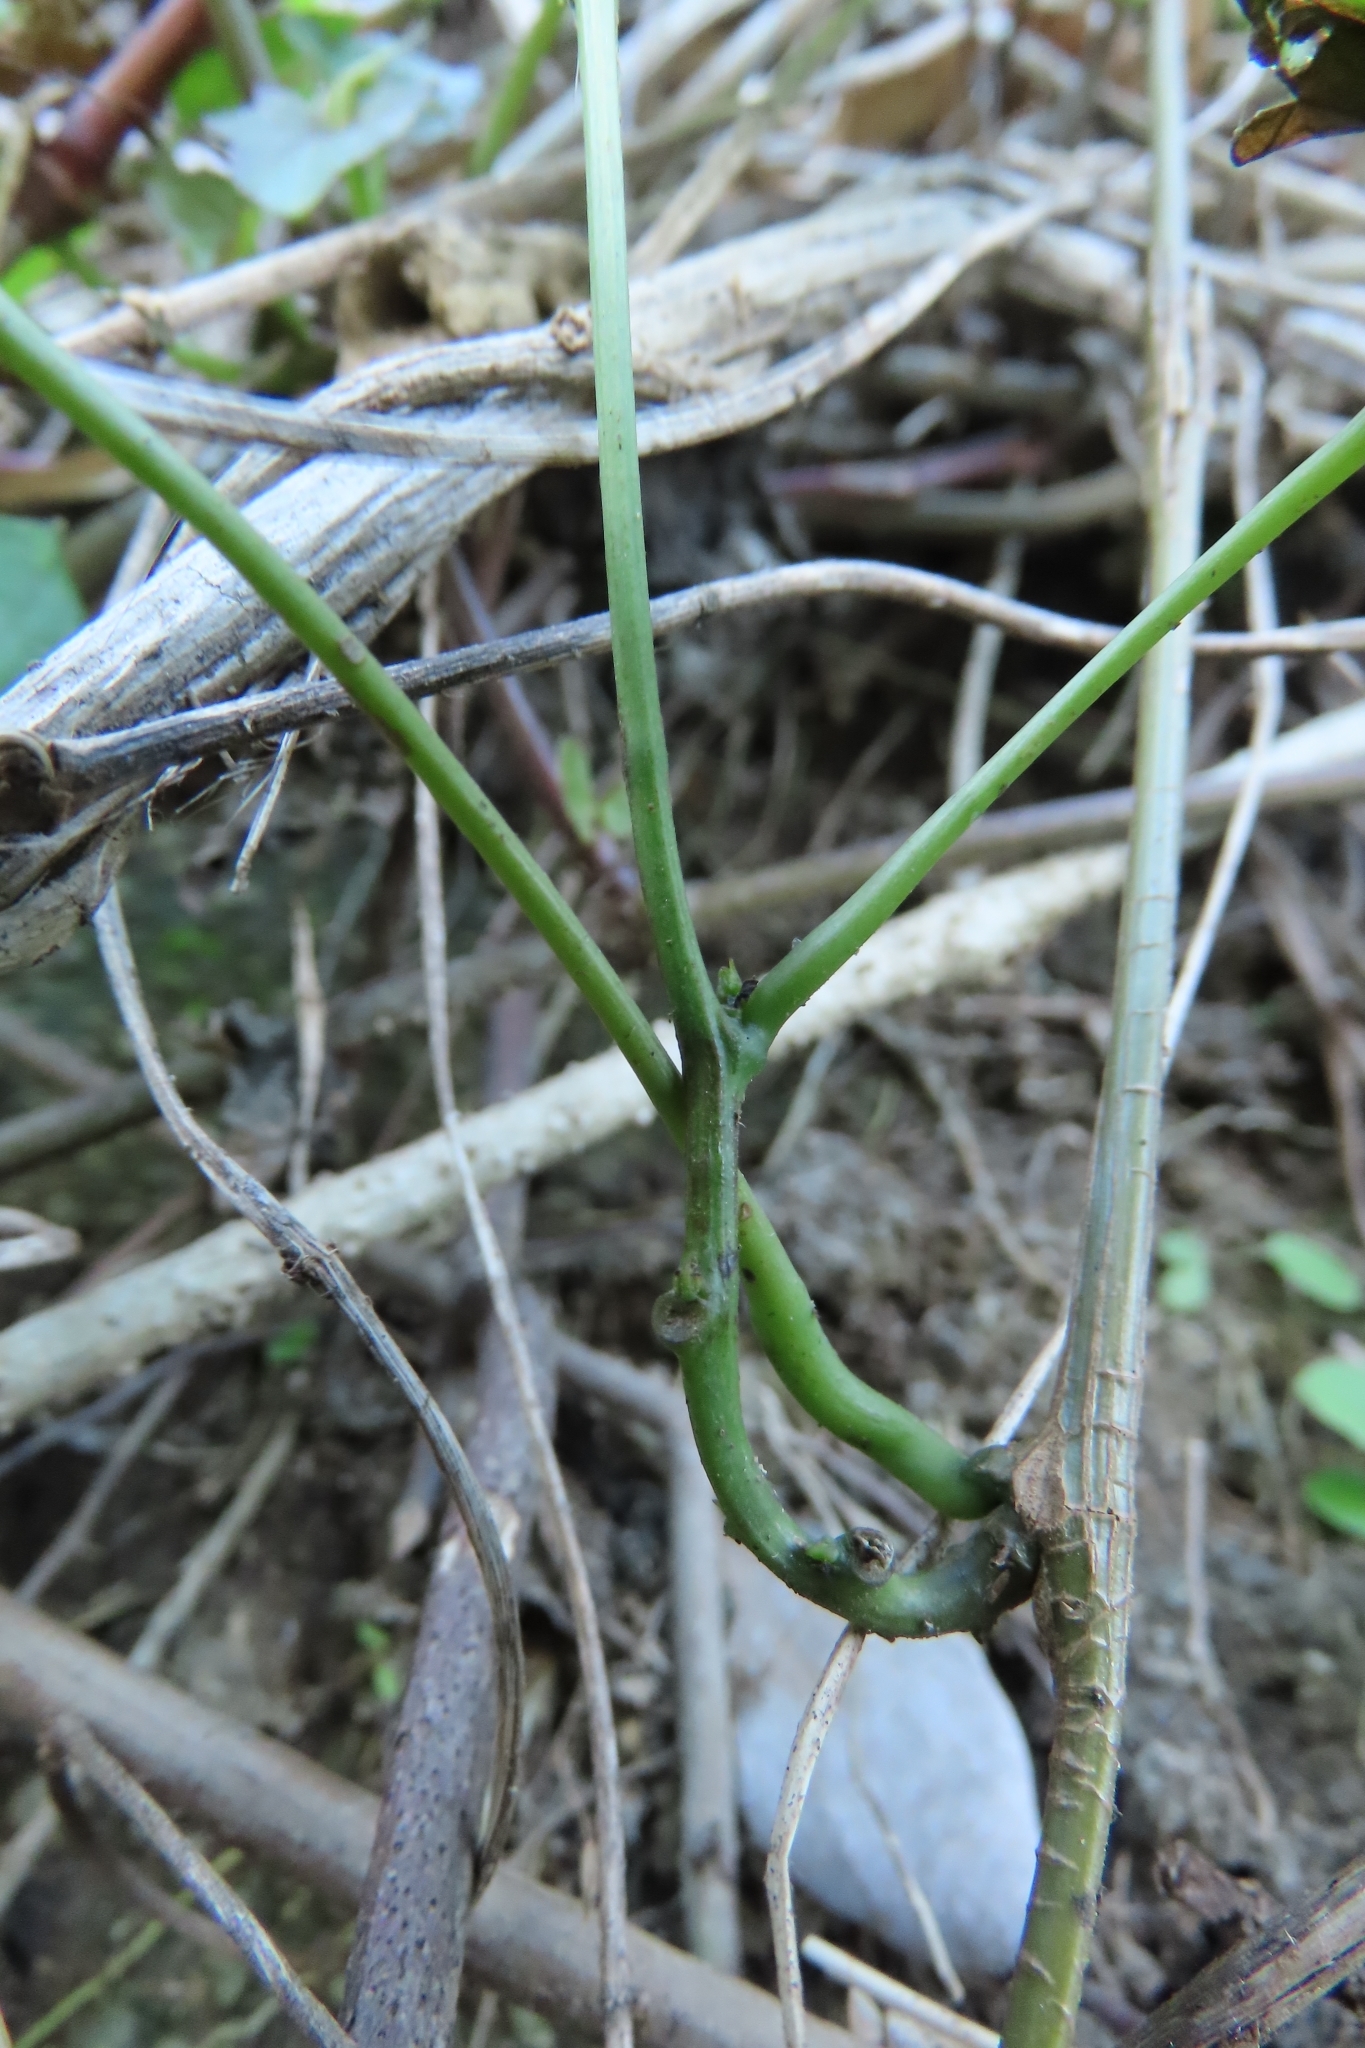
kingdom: Plantae
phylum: Tracheophyta
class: Magnoliopsida
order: Ranunculales
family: Menispermaceae
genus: Stephania
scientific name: Stephania japonica
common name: Snake vine
